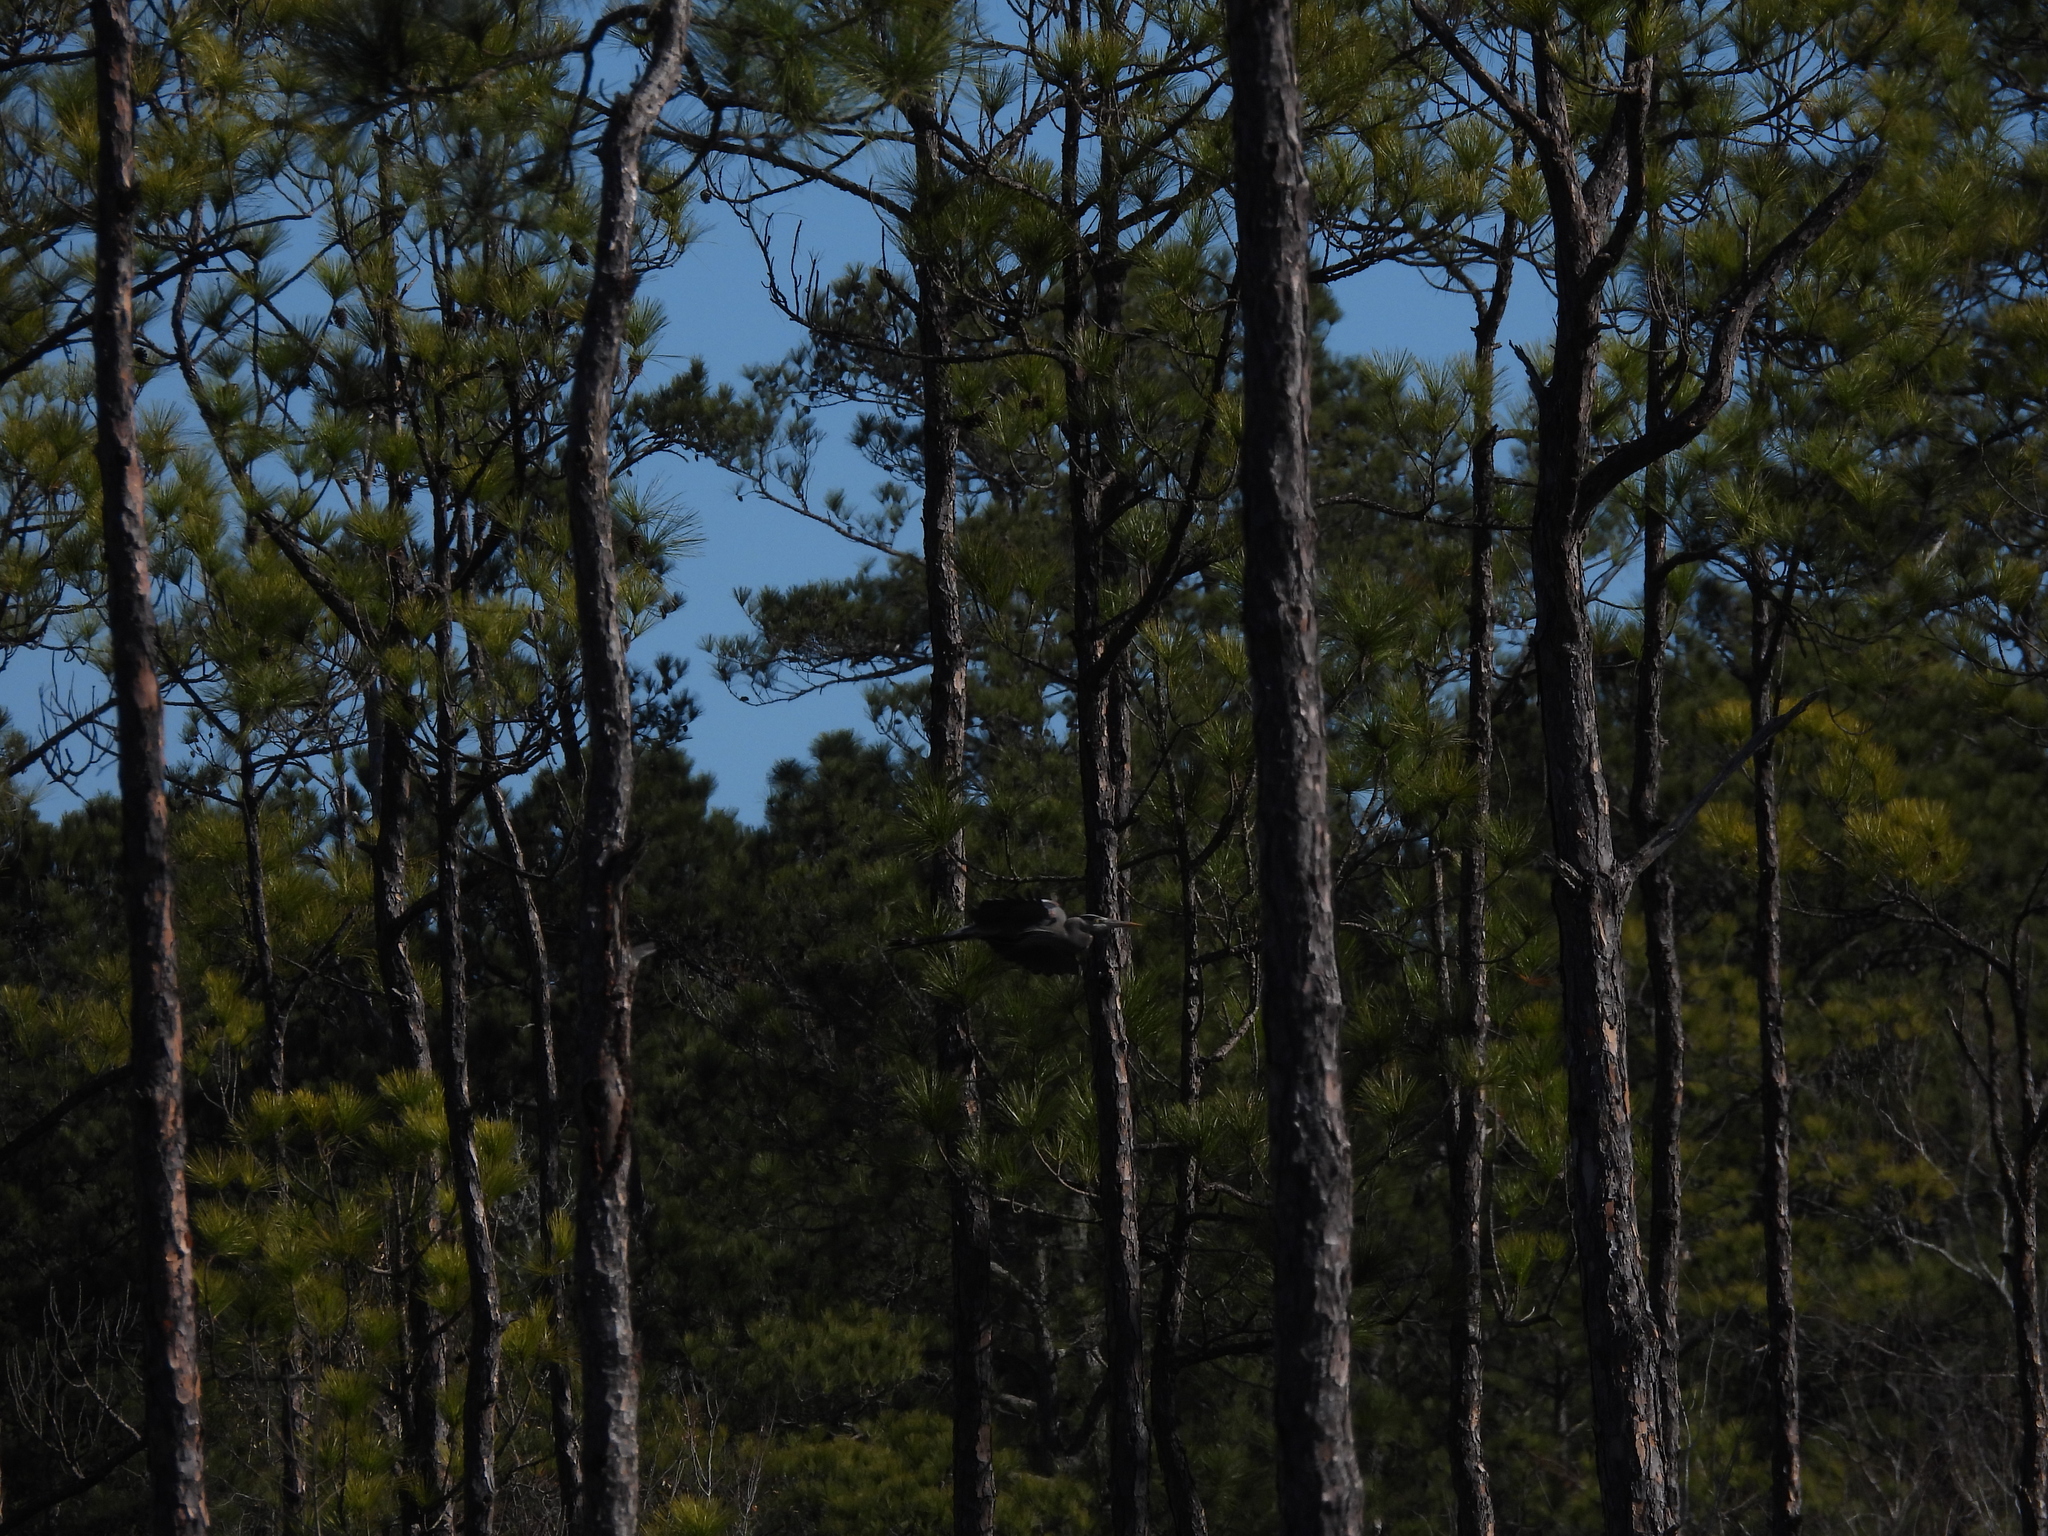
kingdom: Animalia
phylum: Chordata
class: Aves
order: Pelecaniformes
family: Ardeidae
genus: Ardea
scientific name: Ardea herodias
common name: Great blue heron
